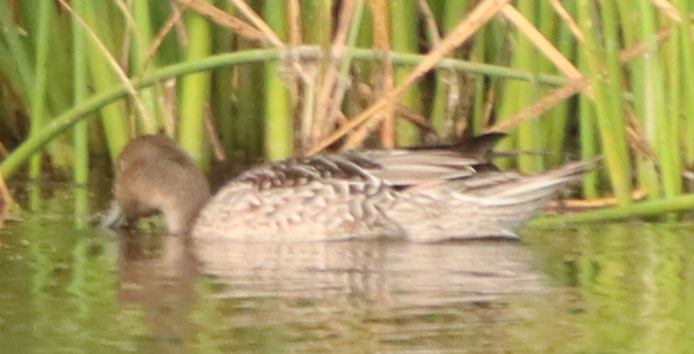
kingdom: Animalia
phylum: Chordata
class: Aves
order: Anseriformes
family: Anatidae
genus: Anas
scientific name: Anas acuta
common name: Northern pintail
